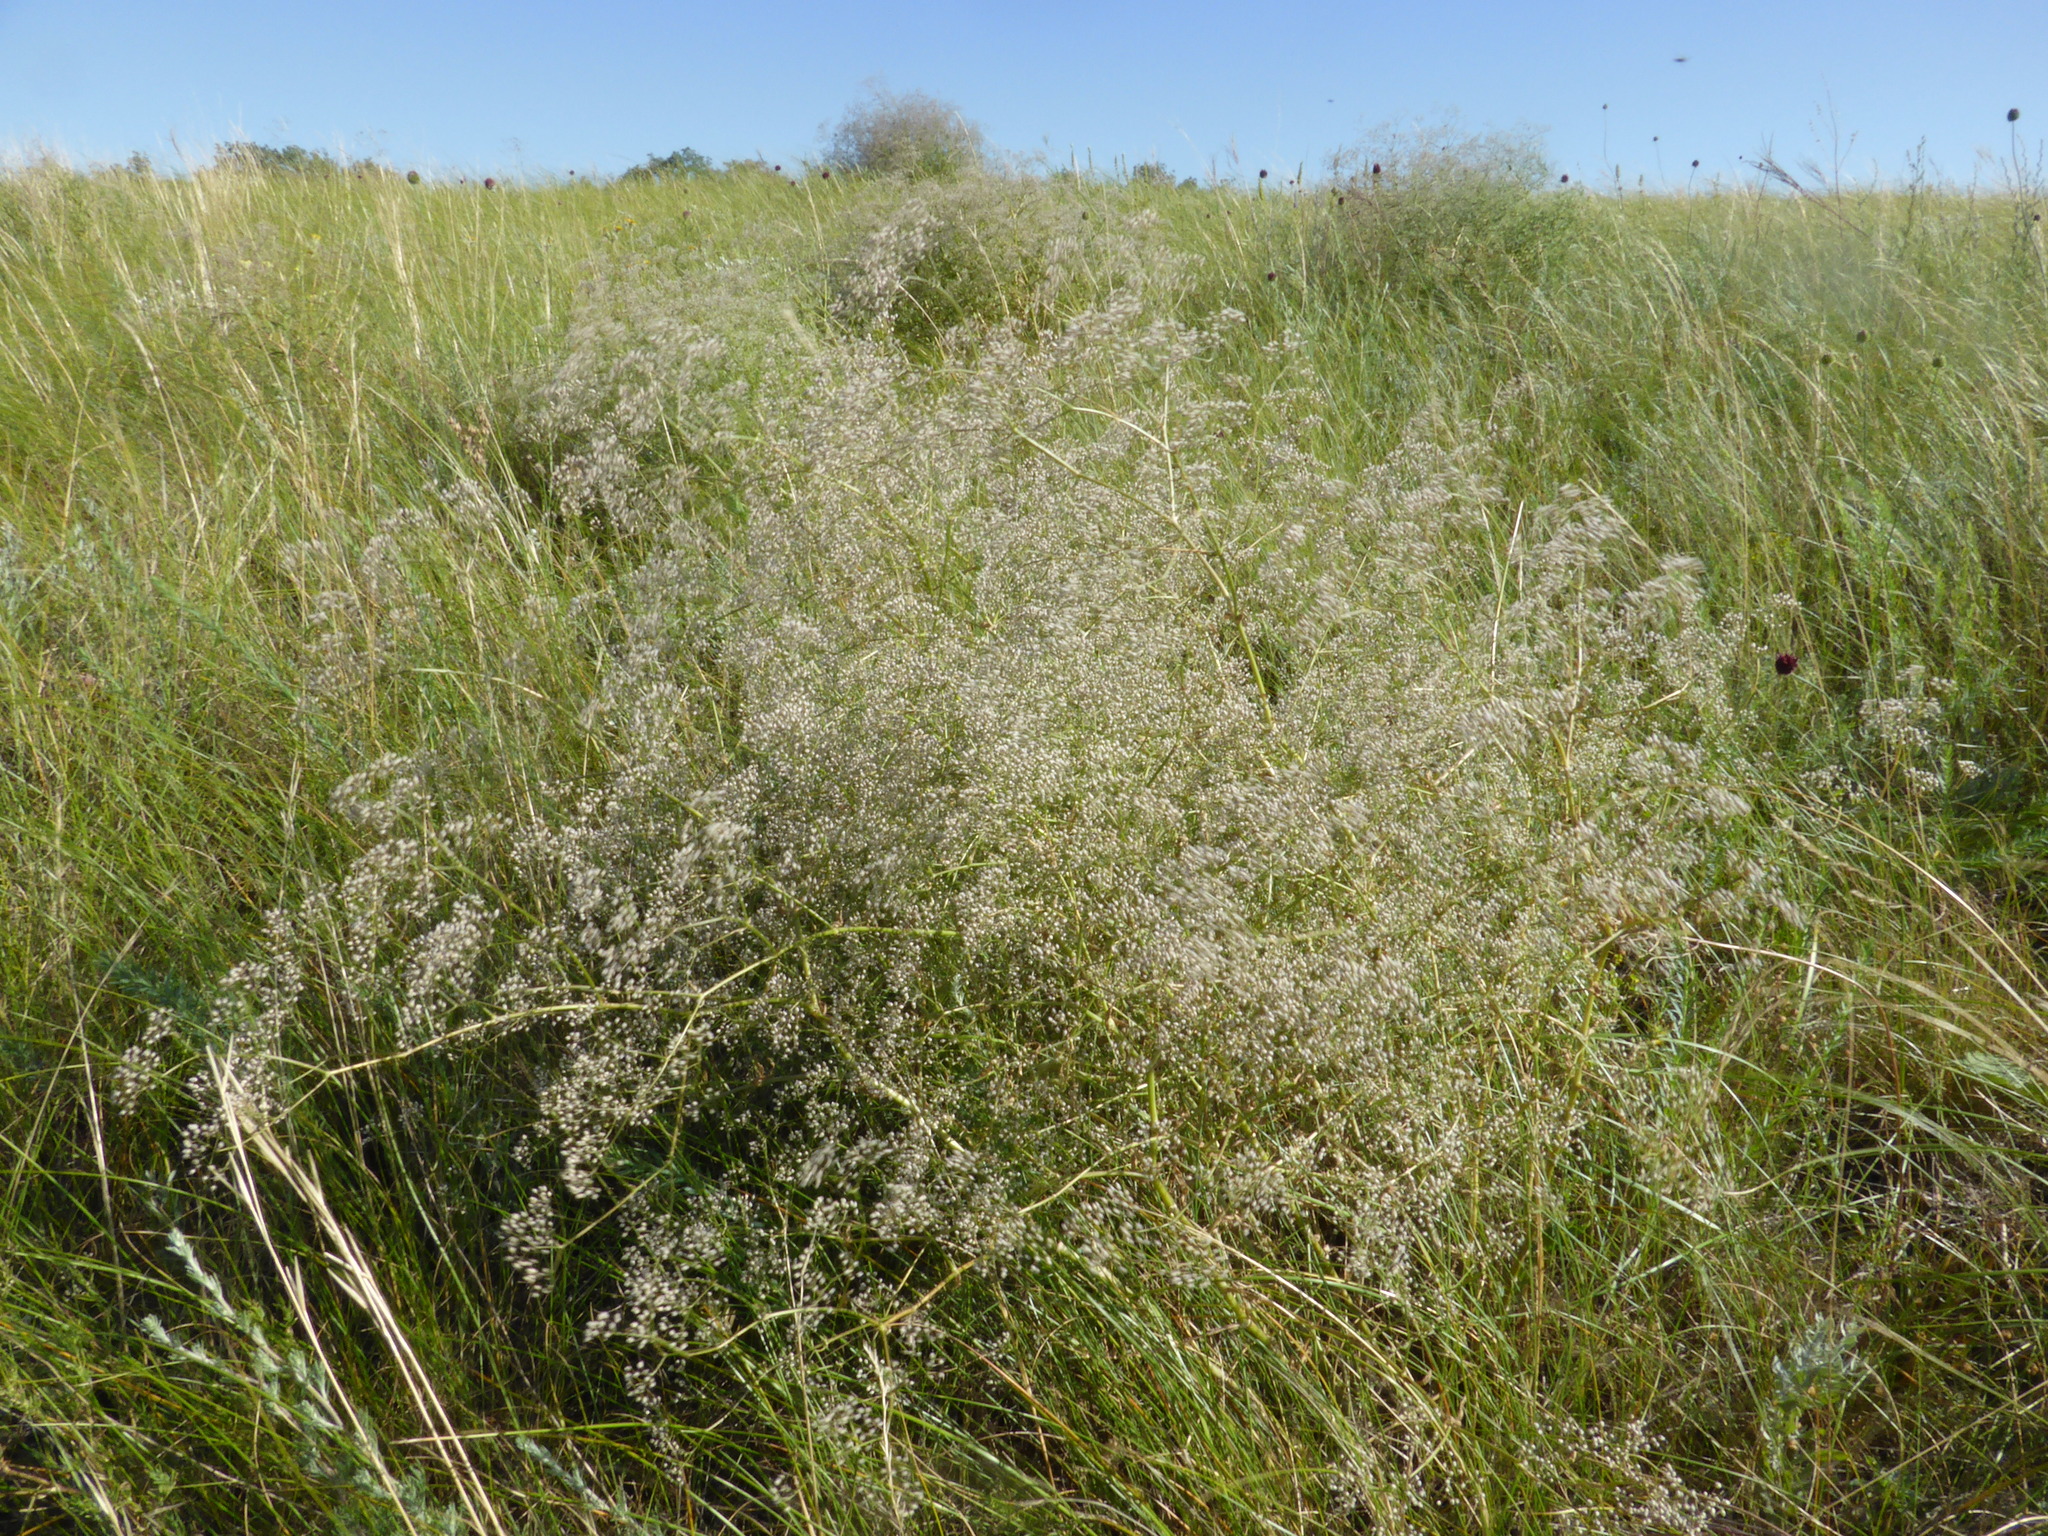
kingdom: Plantae
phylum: Tracheophyta
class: Magnoliopsida
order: Caryophyllales
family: Caryophyllaceae
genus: Gypsophila
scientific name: Gypsophila paniculata
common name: Baby's-breath
